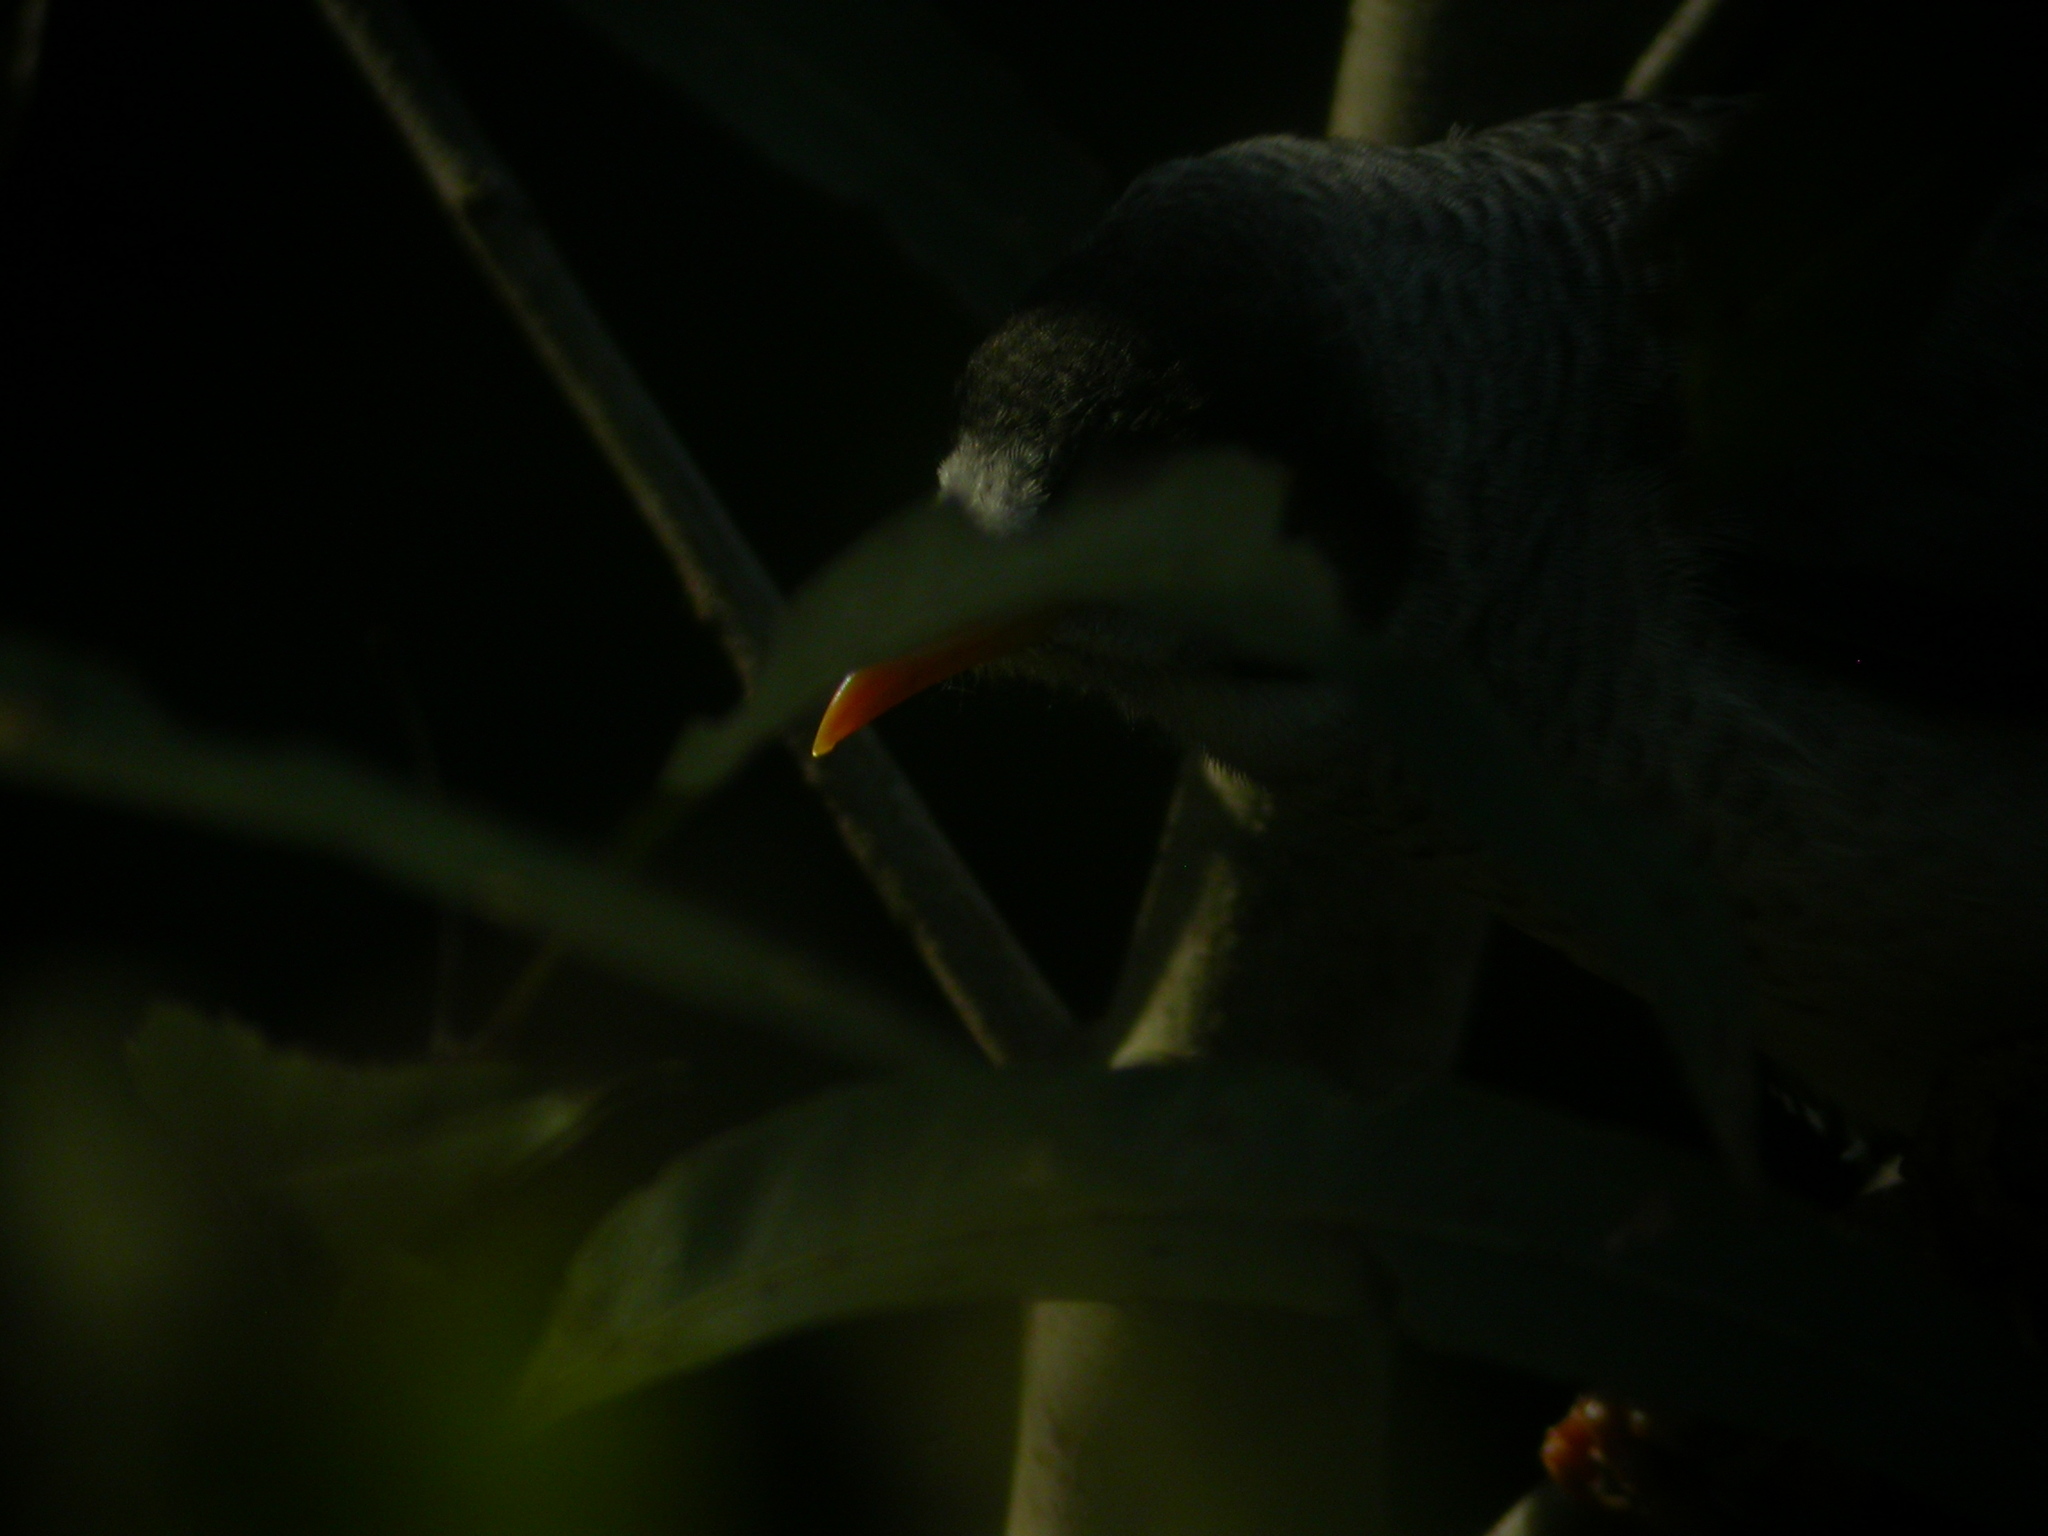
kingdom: Animalia
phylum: Chordata
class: Aves
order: Passeriformes
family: Meliphagidae
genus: Manorina
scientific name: Manorina melanocephala
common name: Noisy miner
